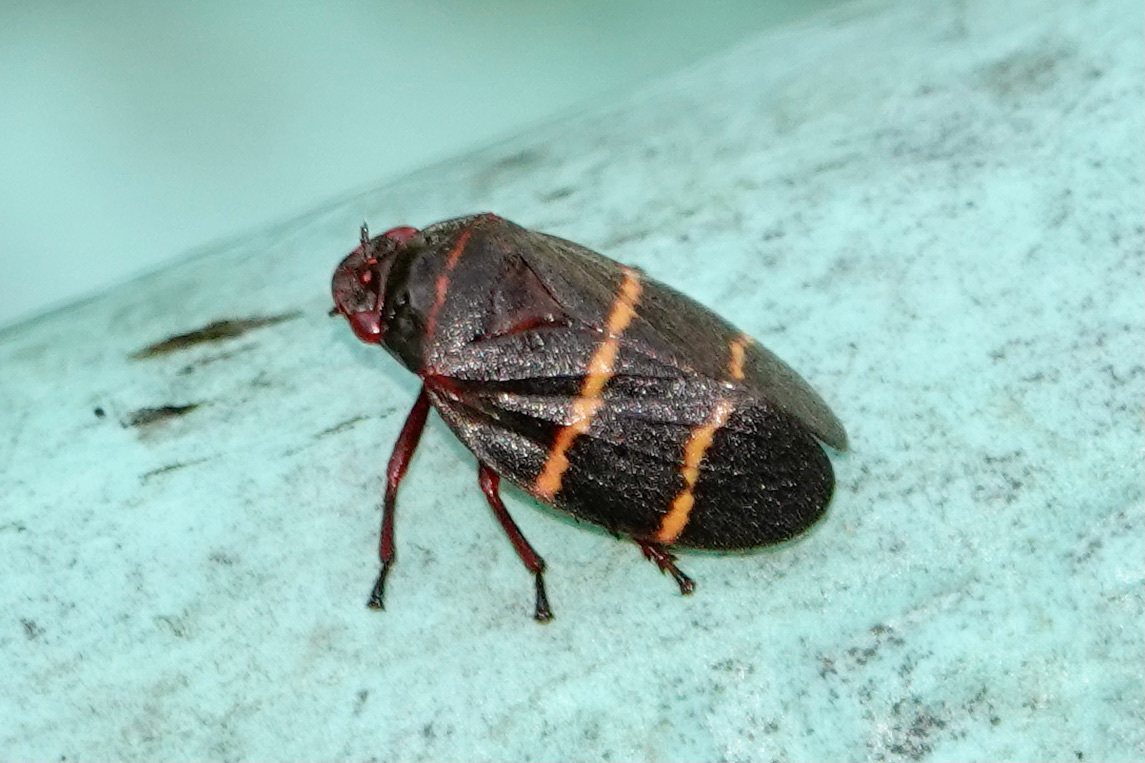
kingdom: Animalia
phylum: Arthropoda
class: Insecta
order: Hemiptera
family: Cercopidae
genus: Prosapia
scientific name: Prosapia bicincta
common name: Twolined spittlebug
